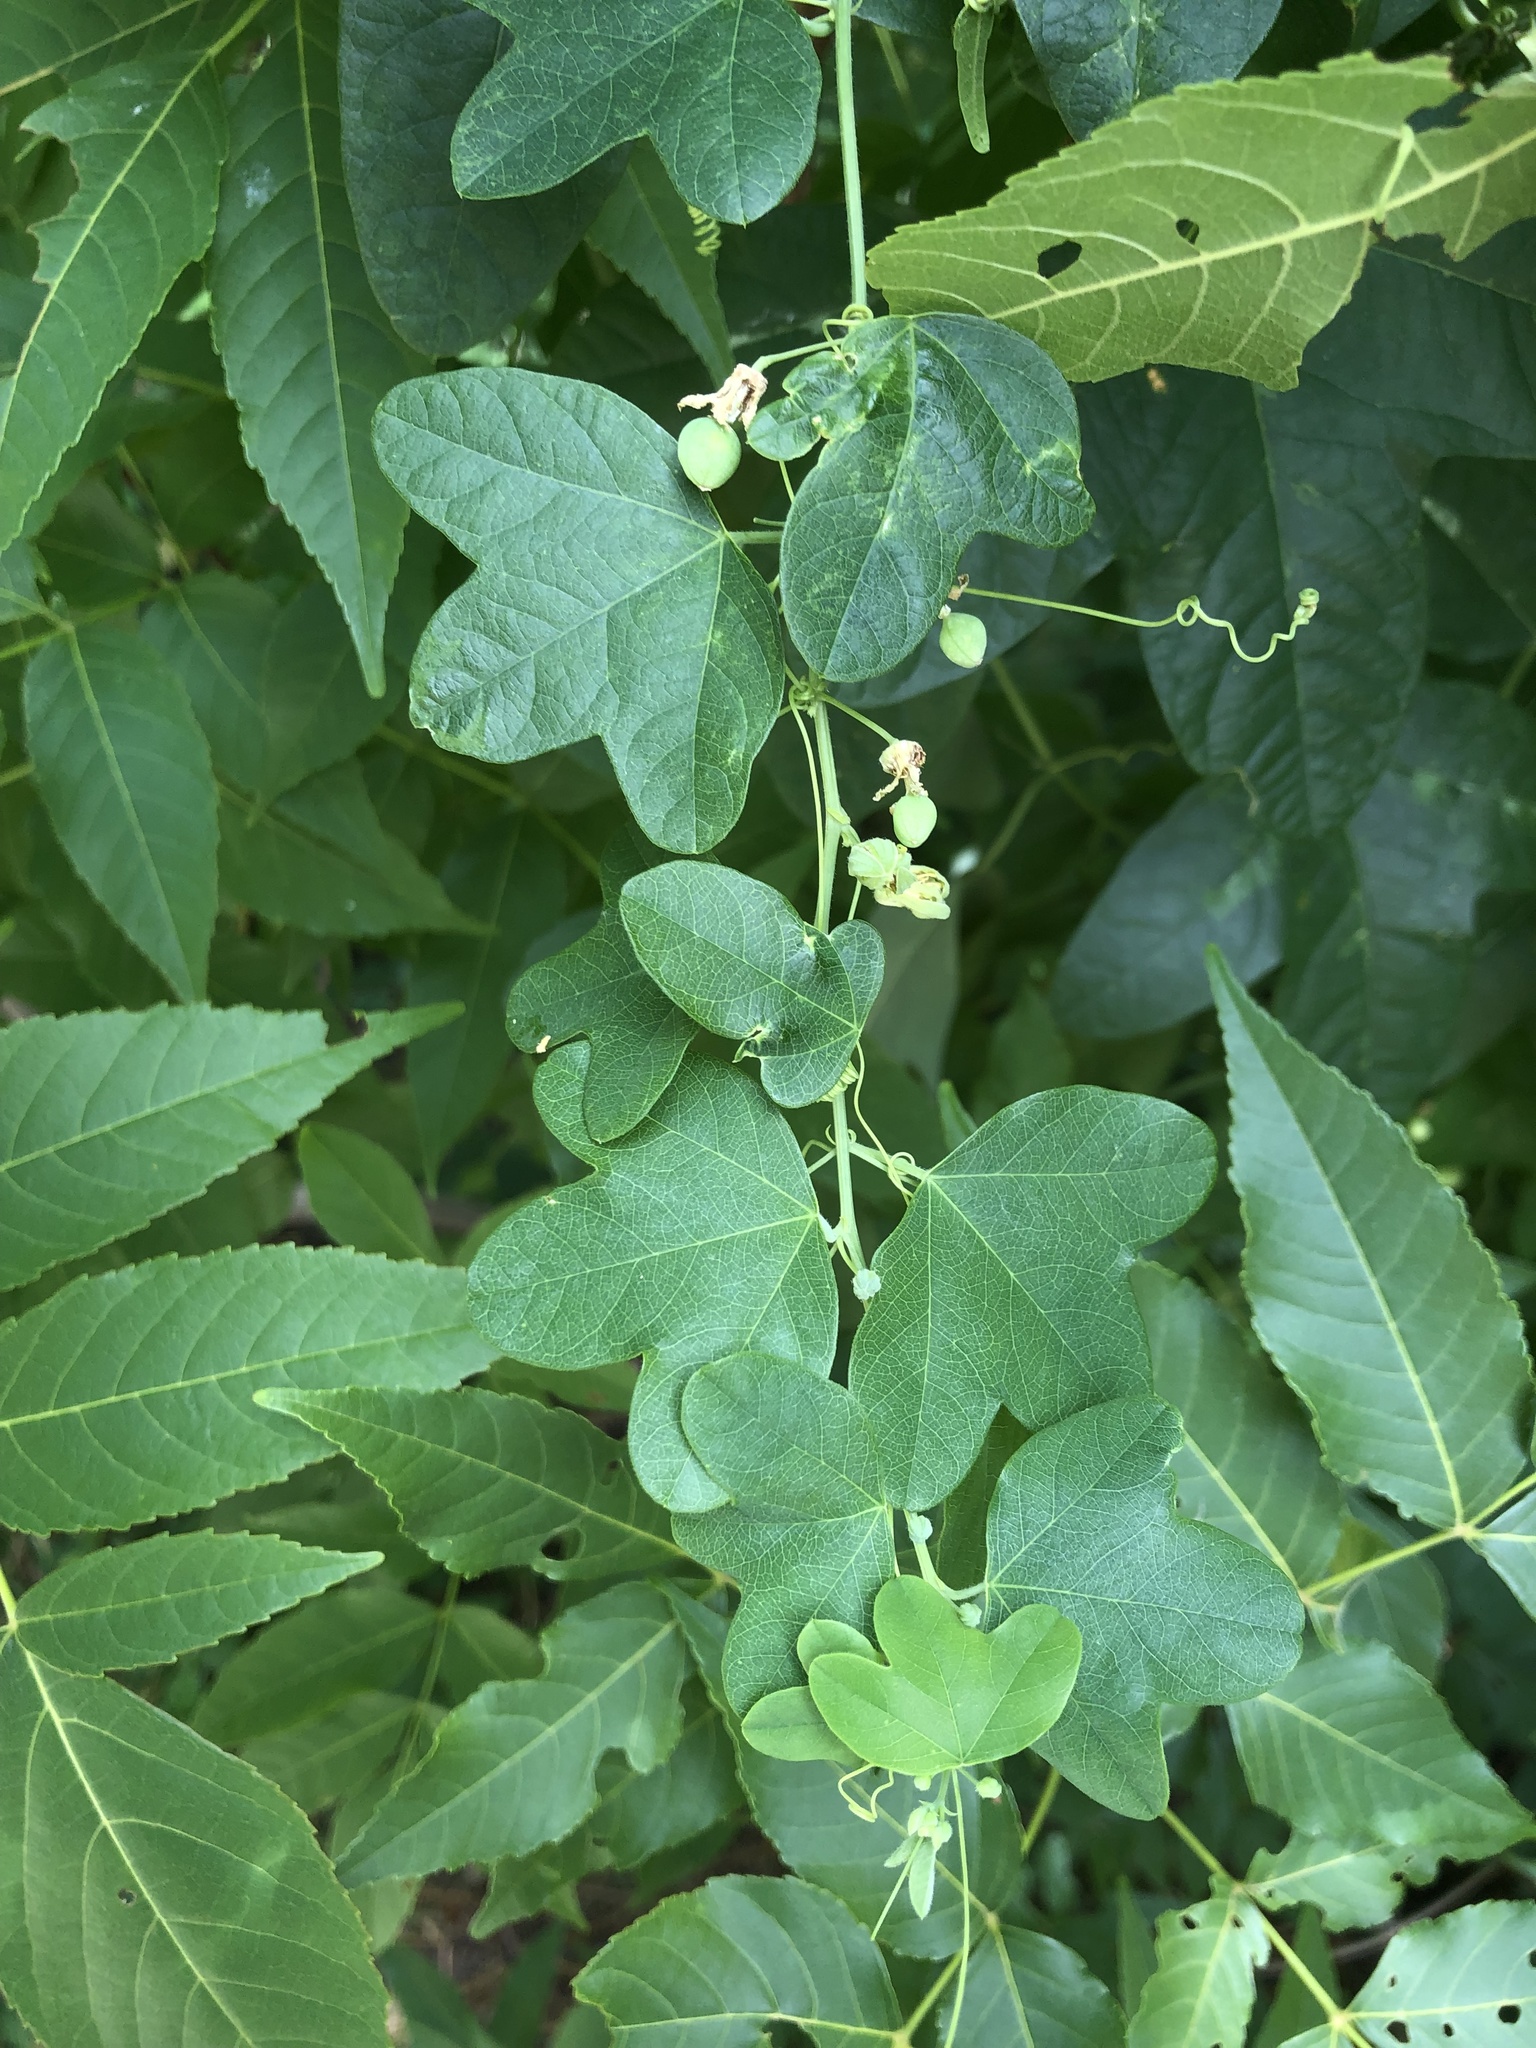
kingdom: Plantae
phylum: Tracheophyta
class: Magnoliopsida
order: Malpighiales
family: Passifloraceae
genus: Passiflora
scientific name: Passiflora lutea
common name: Yellow passionflower
